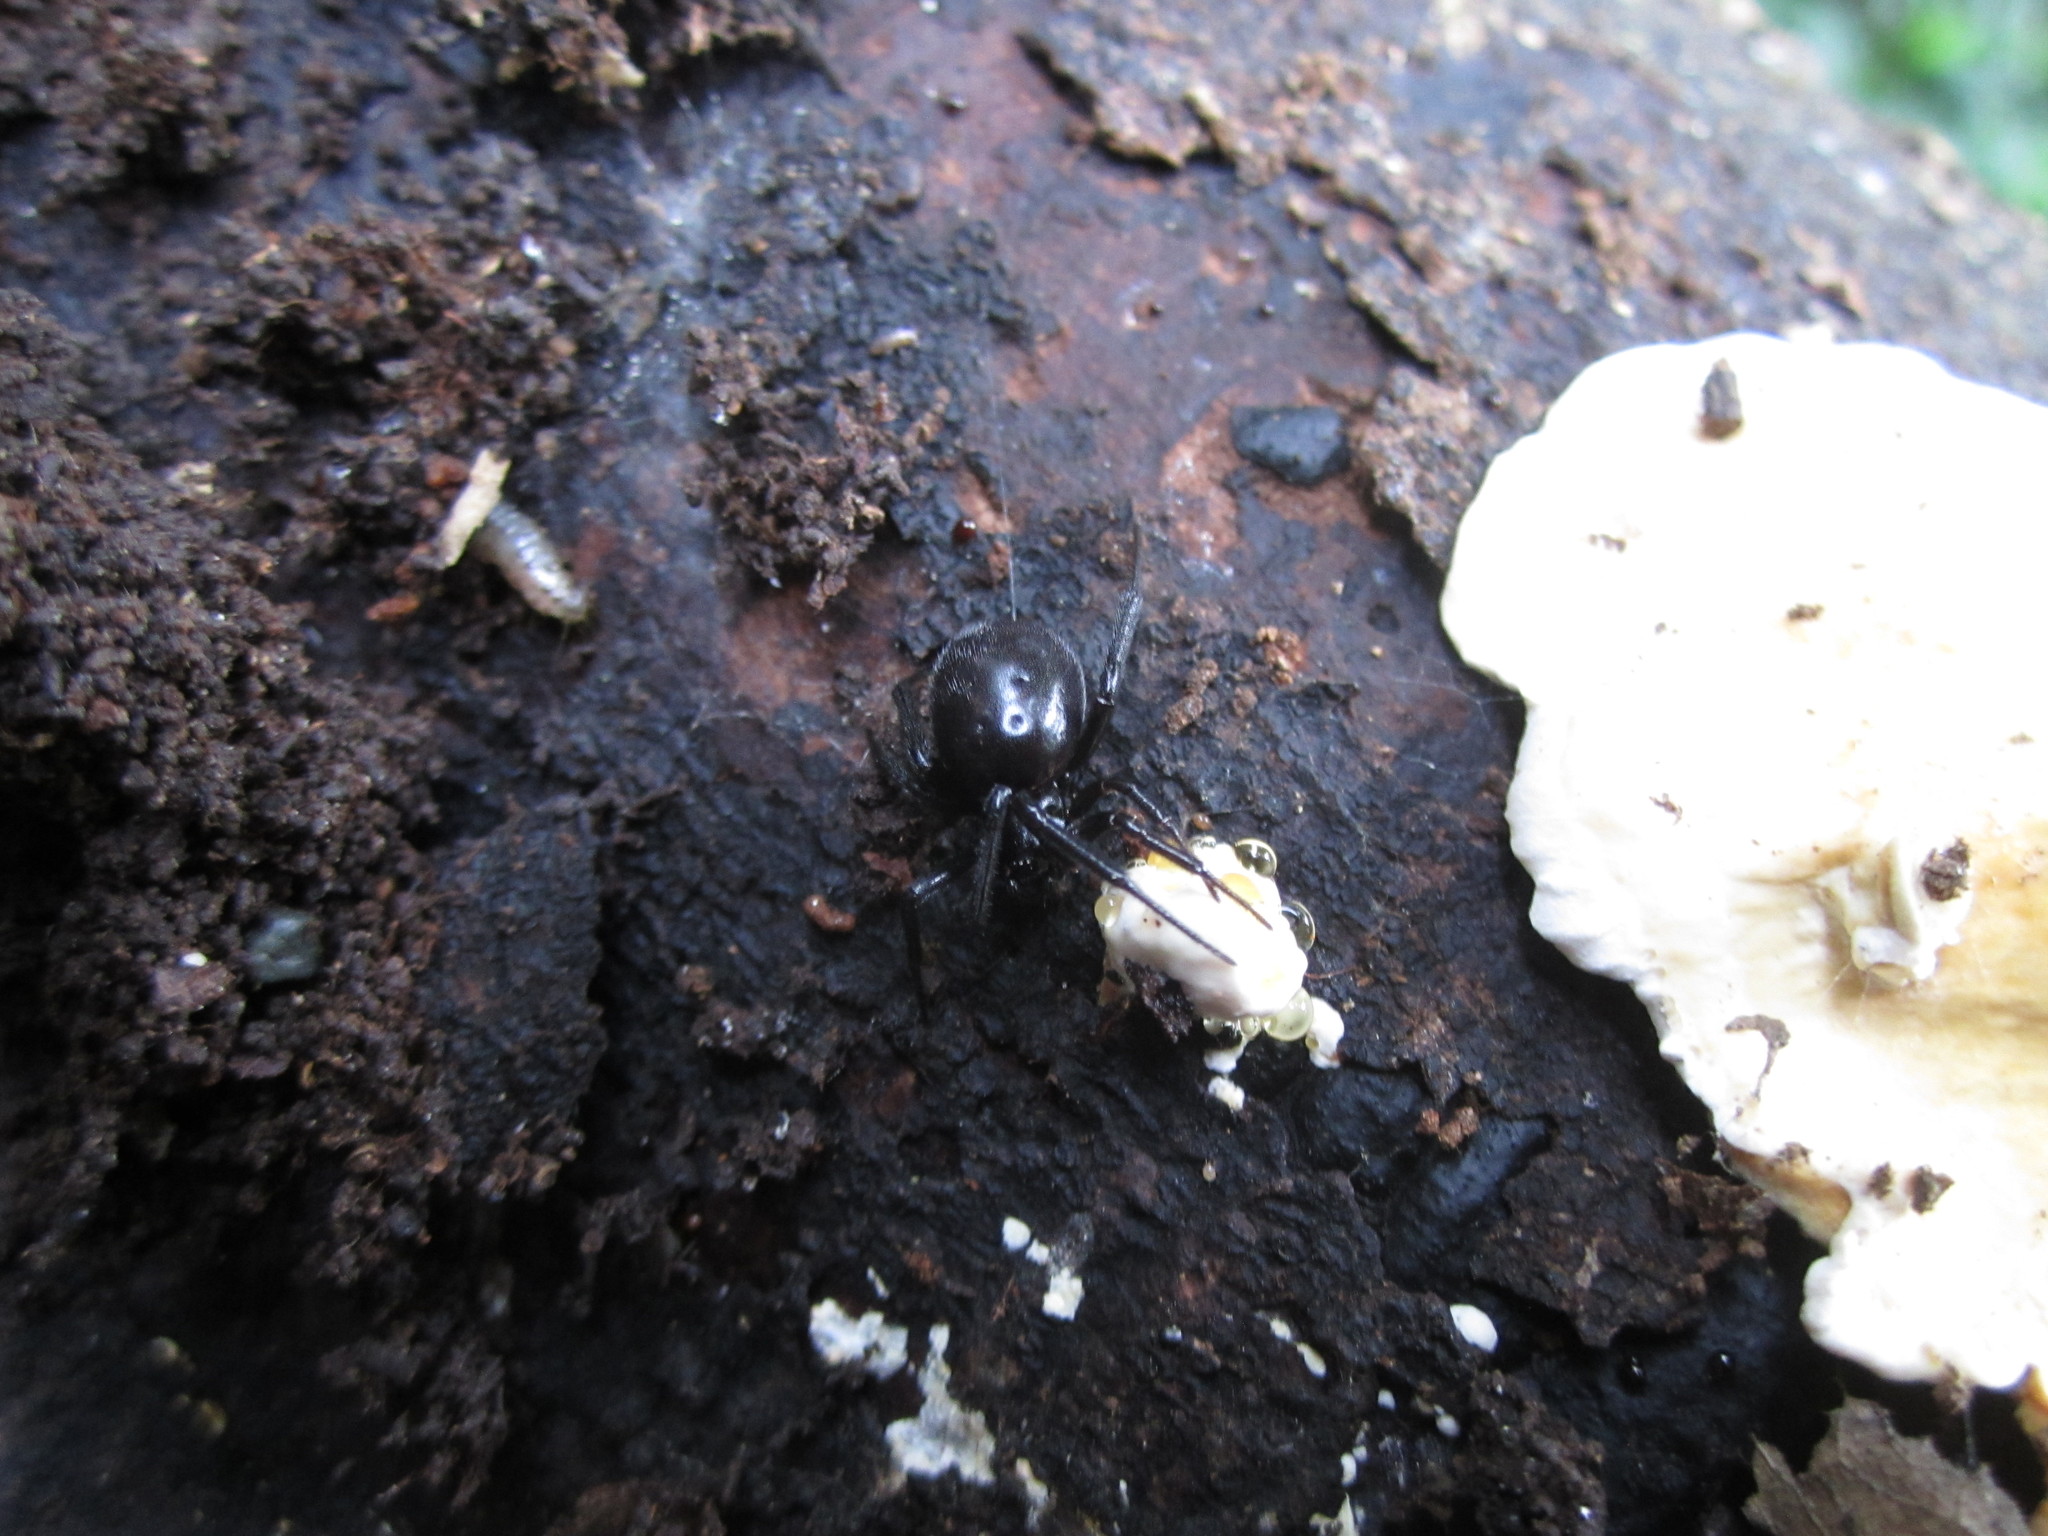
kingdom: Animalia
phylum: Arthropoda
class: Arachnida
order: Araneae
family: Theridiidae
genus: Steatoda
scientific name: Steatoda capensis
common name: Cobweb weaver
